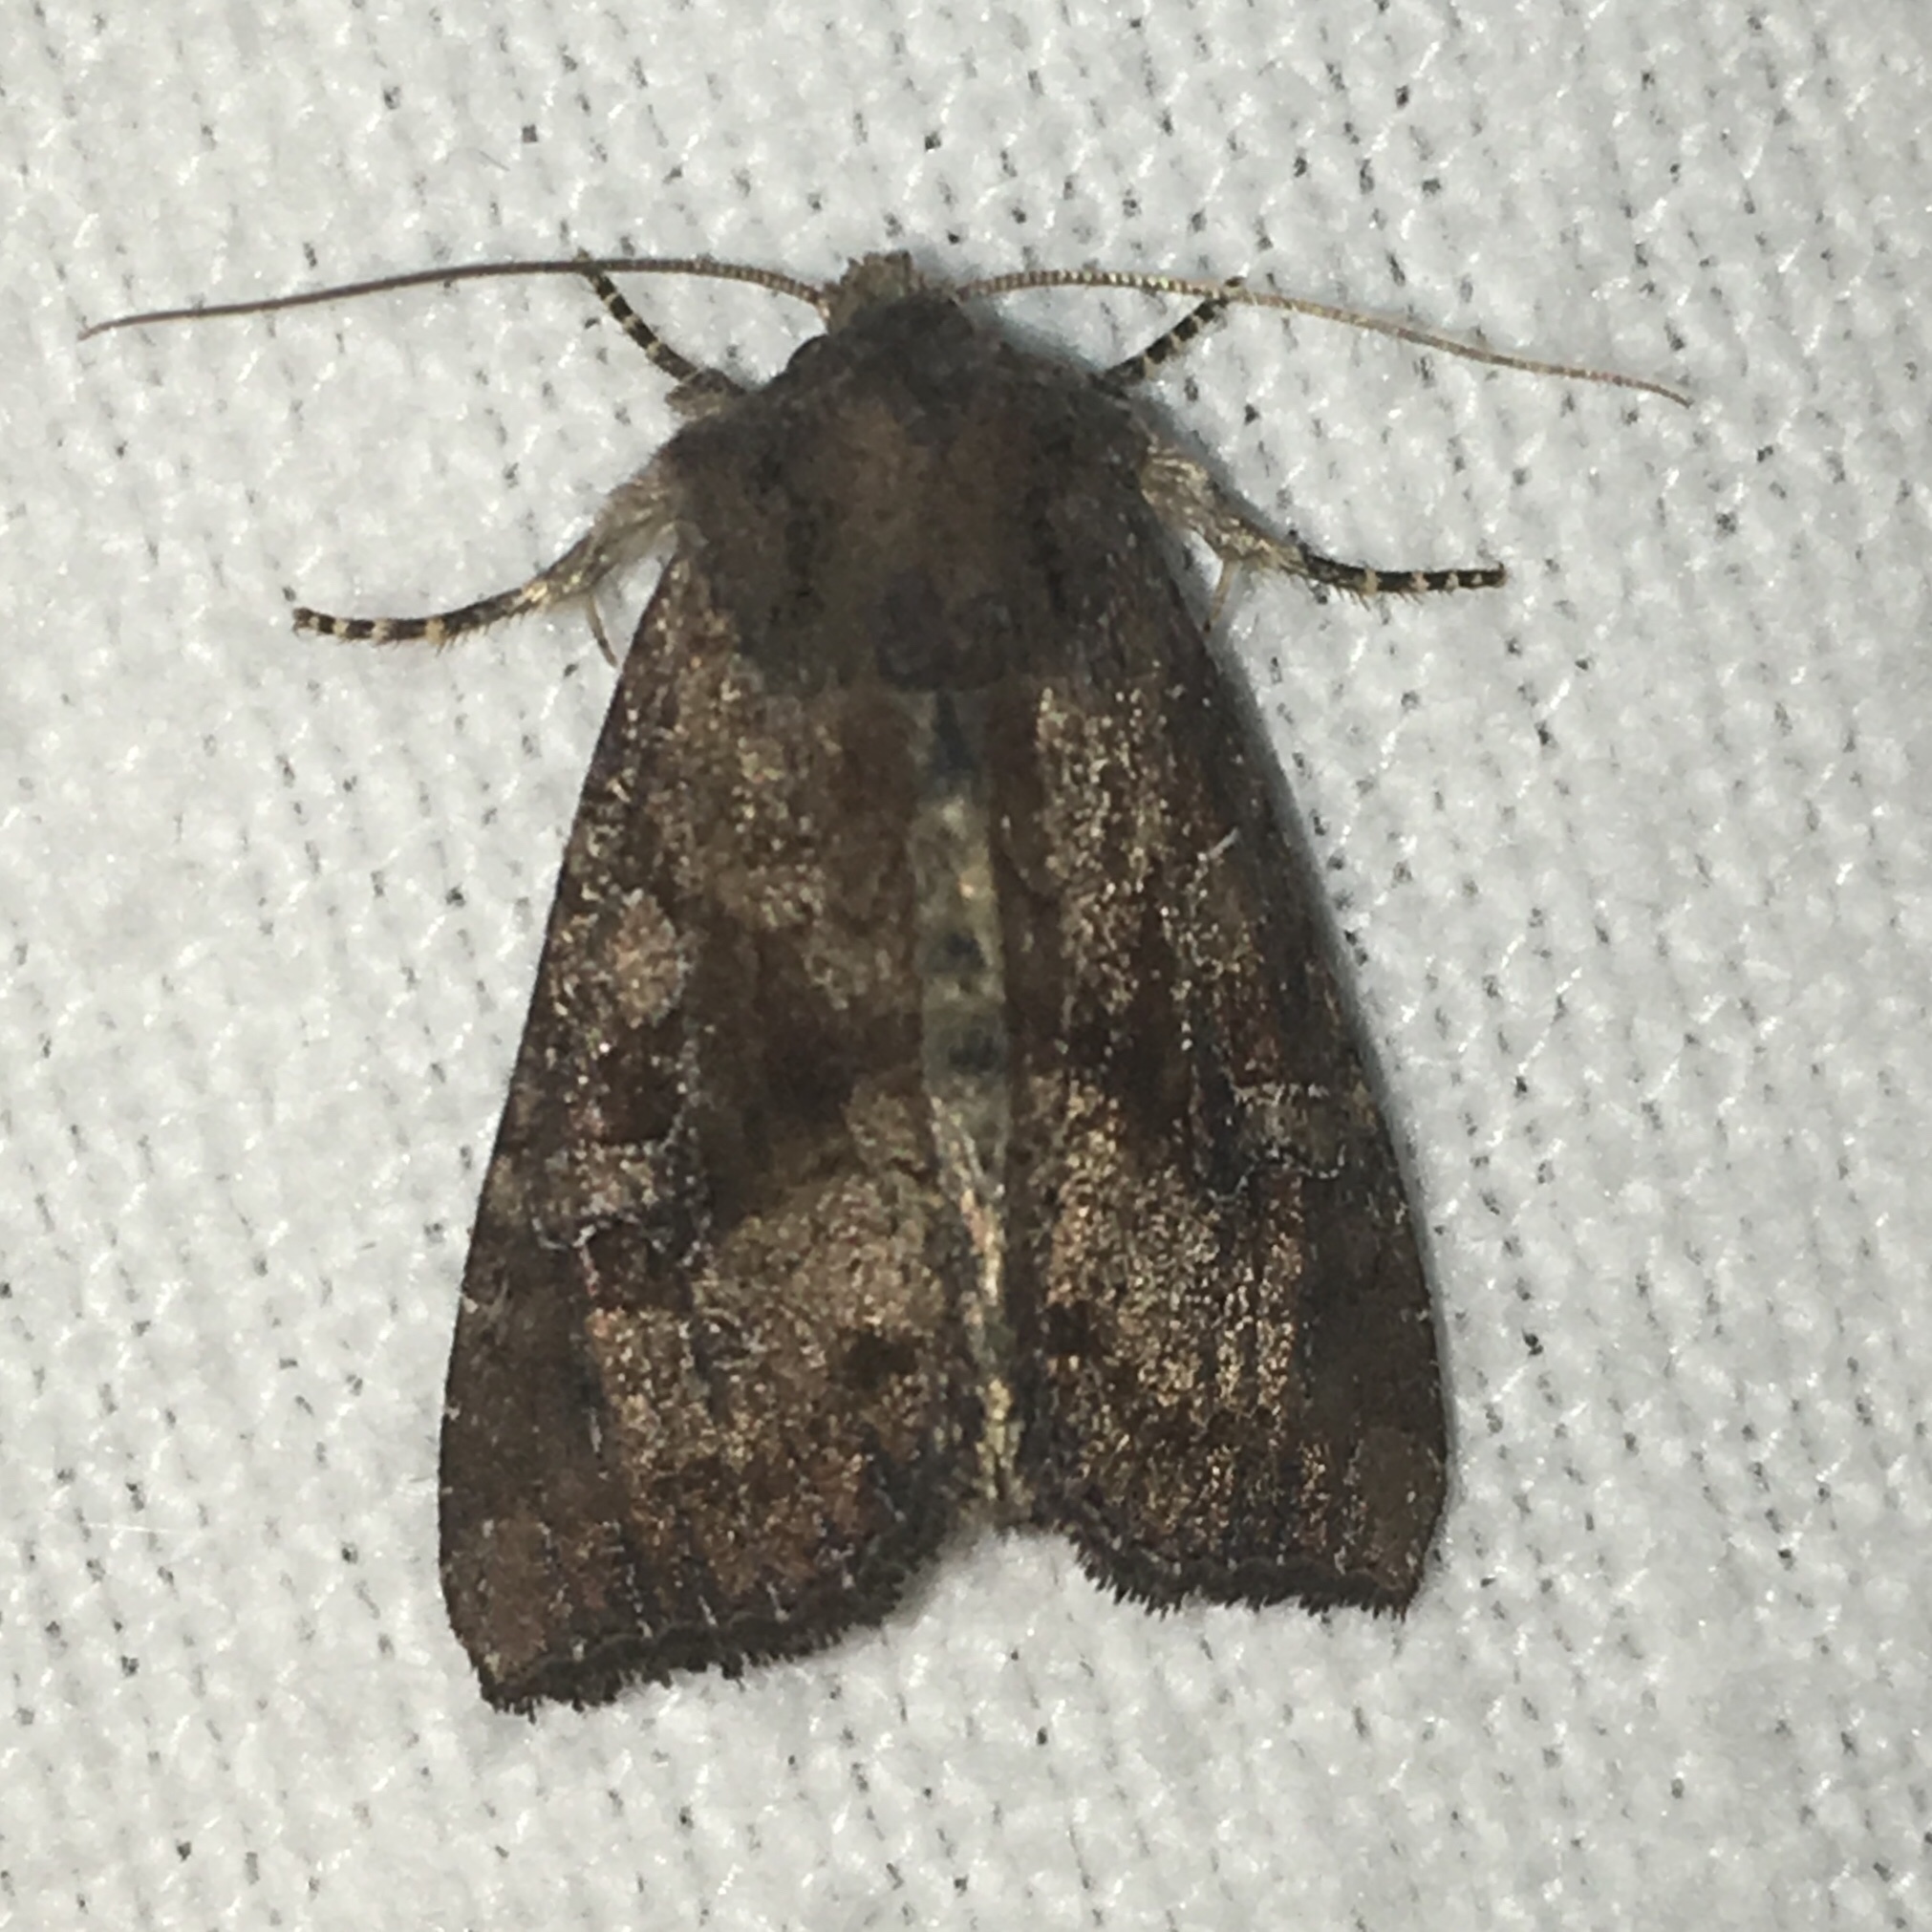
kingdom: Animalia
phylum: Arthropoda
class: Insecta
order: Lepidoptera
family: Noctuidae
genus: Loscopia
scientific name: Loscopia velata
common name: Veiled ear moth
